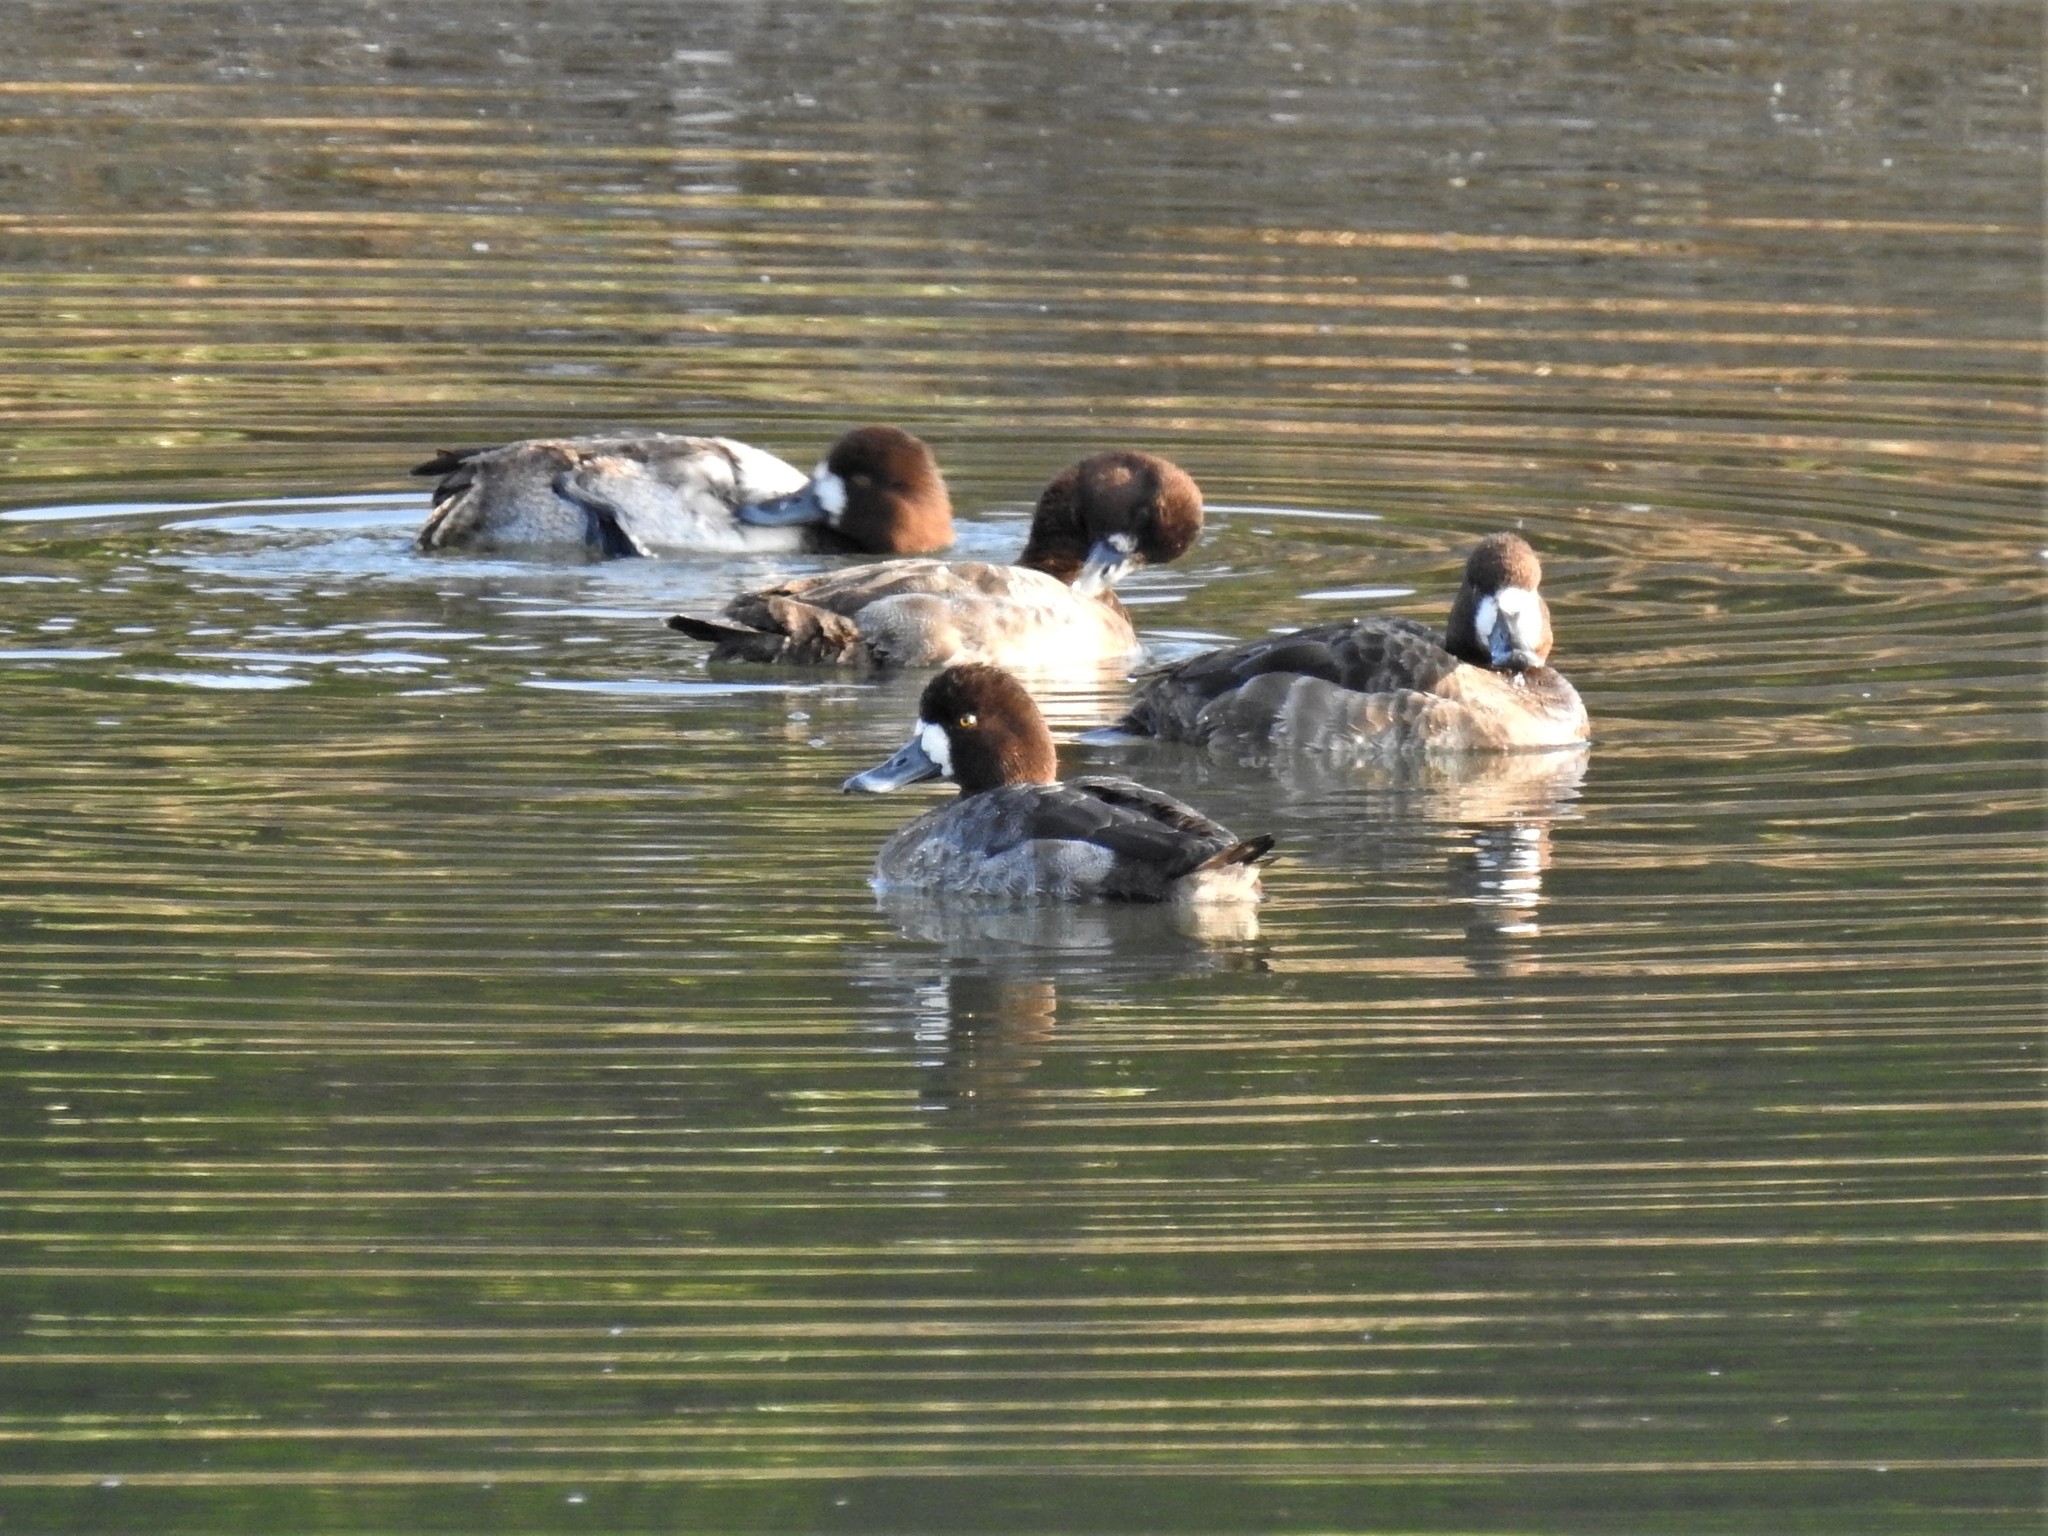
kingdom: Animalia
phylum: Chordata
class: Aves
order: Anseriformes
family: Anatidae
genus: Aythya
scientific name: Aythya marila
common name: Greater scaup
